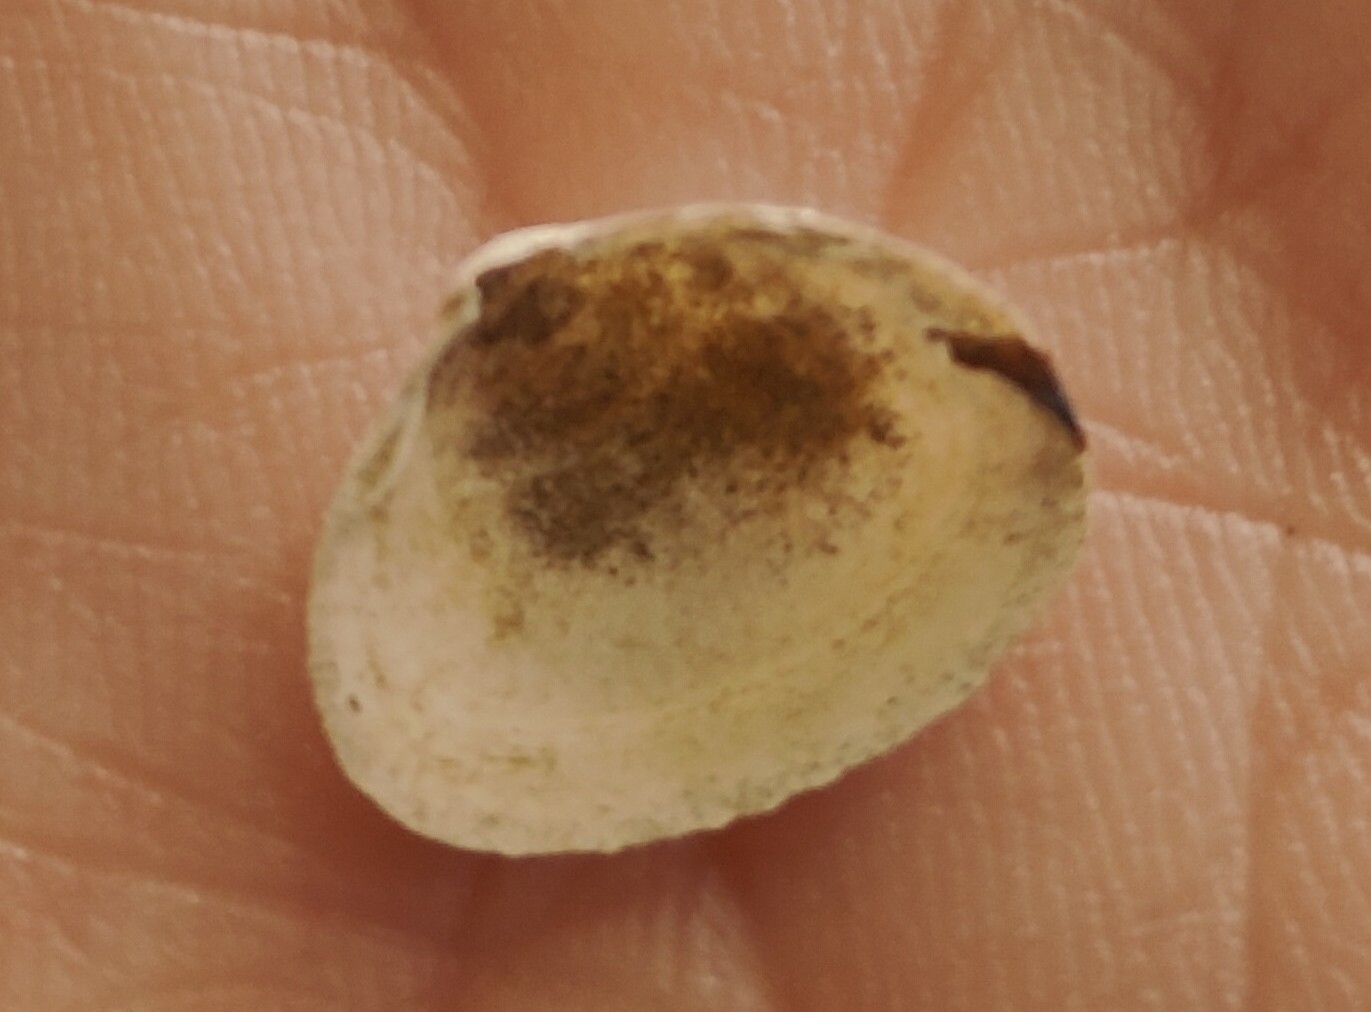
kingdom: Animalia
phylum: Mollusca
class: Bivalvia
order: Sphaeriida
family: Sphaeriidae
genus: Sphaerium
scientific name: Sphaerium striatinum
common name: Striated fingernailclam
